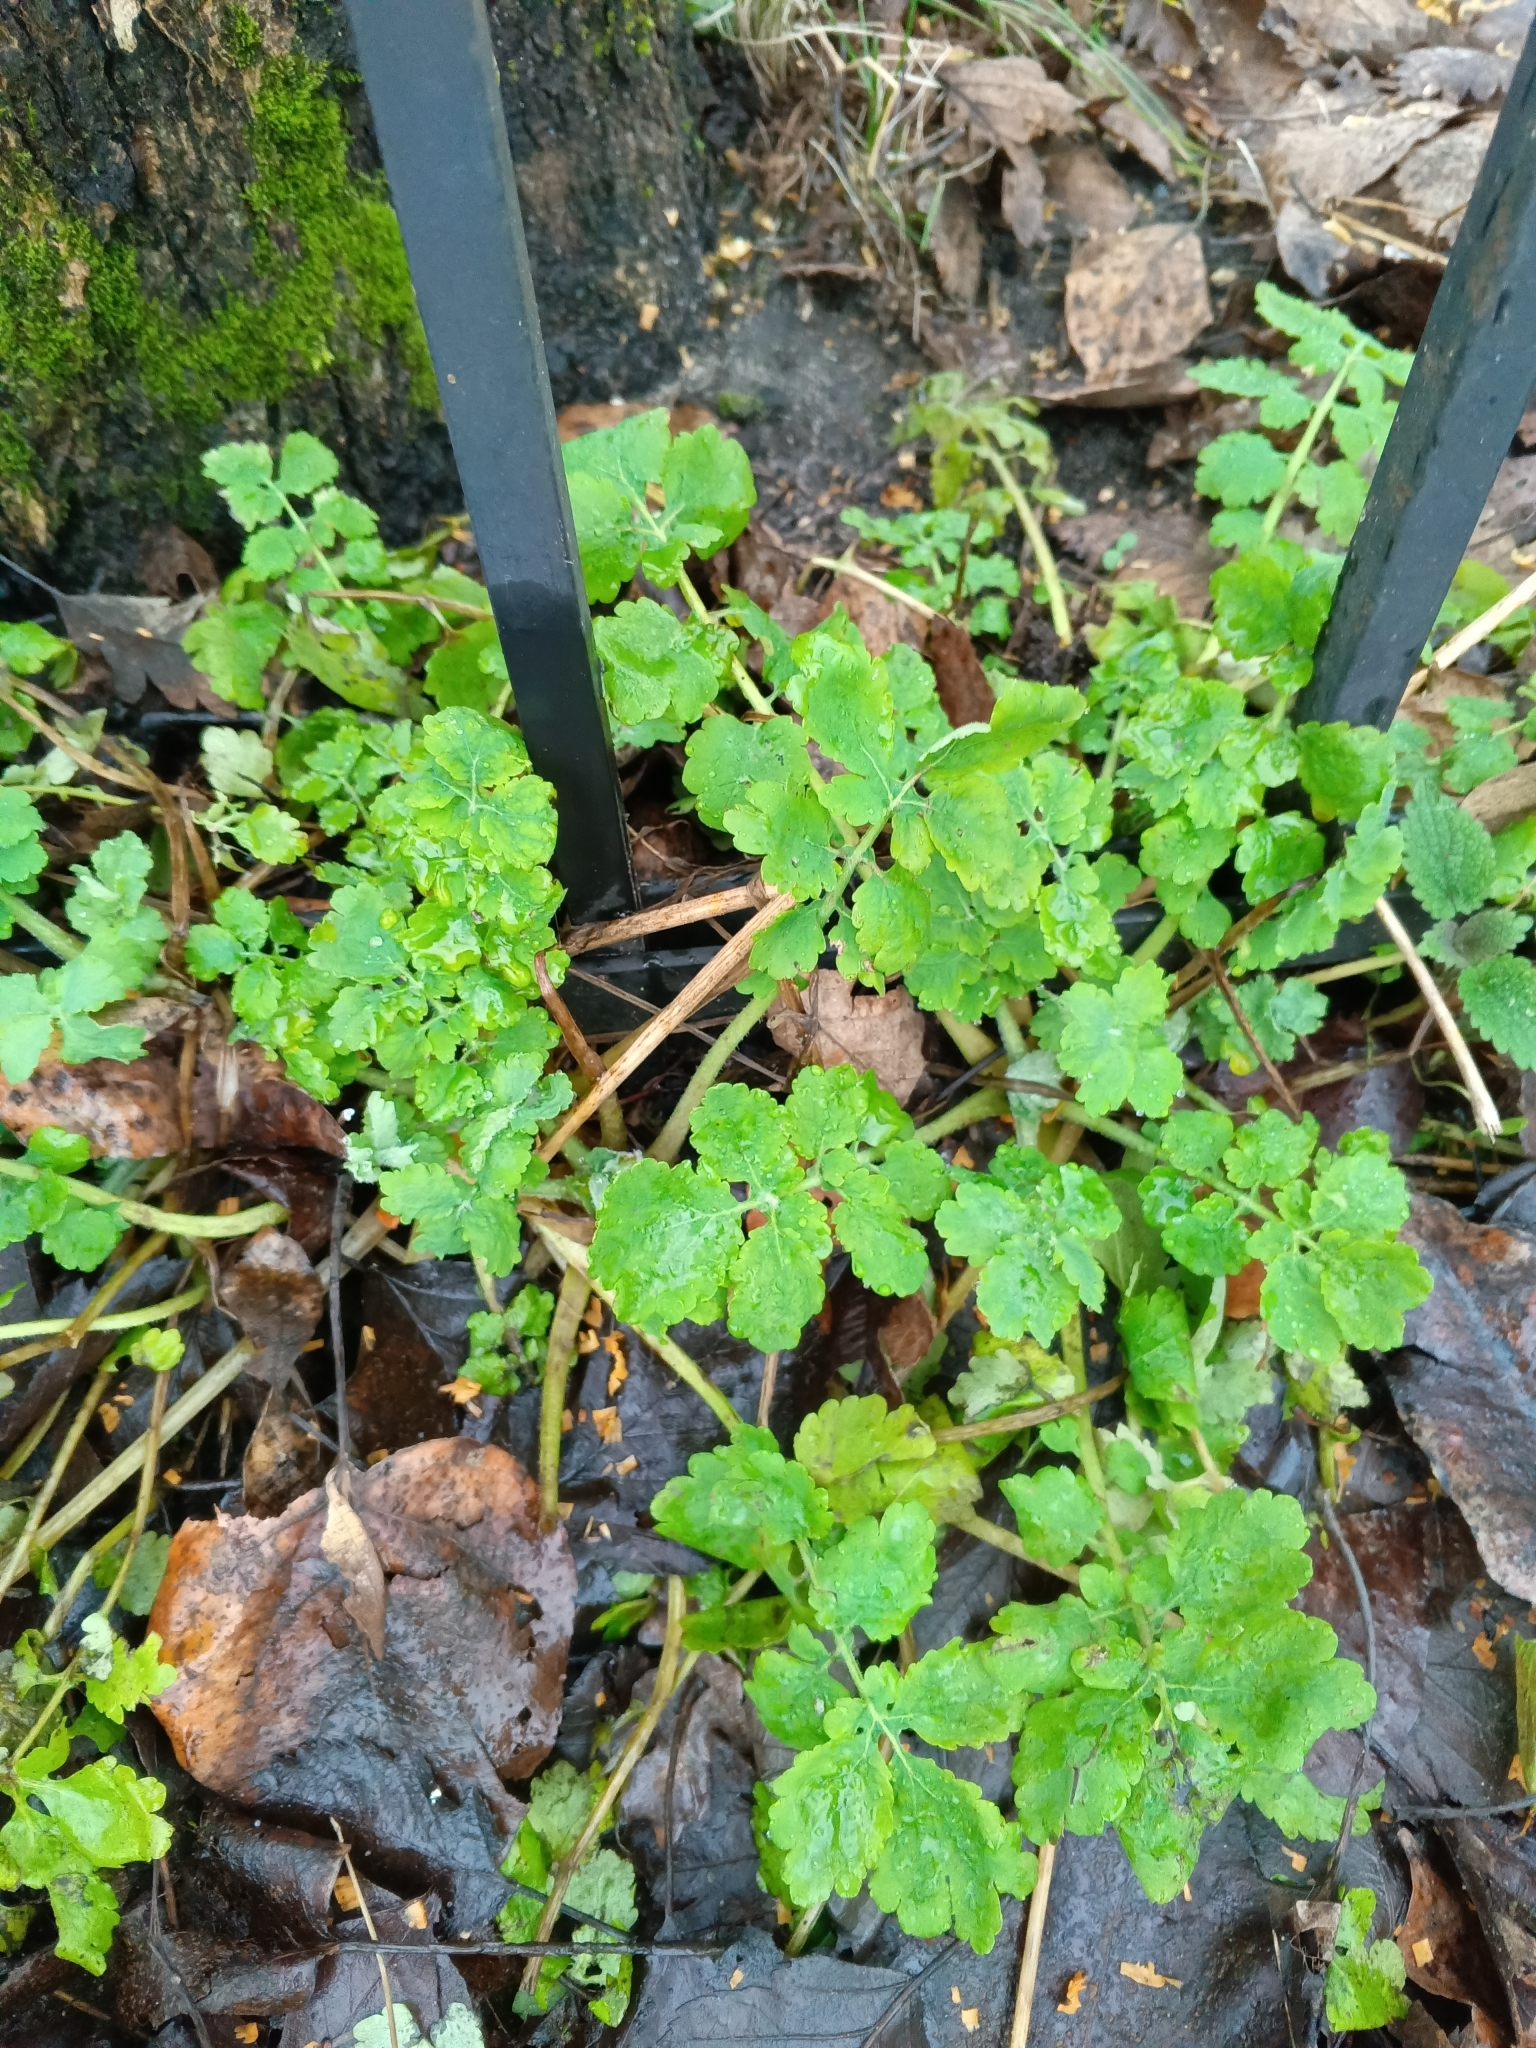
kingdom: Plantae
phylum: Tracheophyta
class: Magnoliopsida
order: Ranunculales
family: Papaveraceae
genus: Chelidonium
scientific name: Chelidonium majus
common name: Greater celandine
